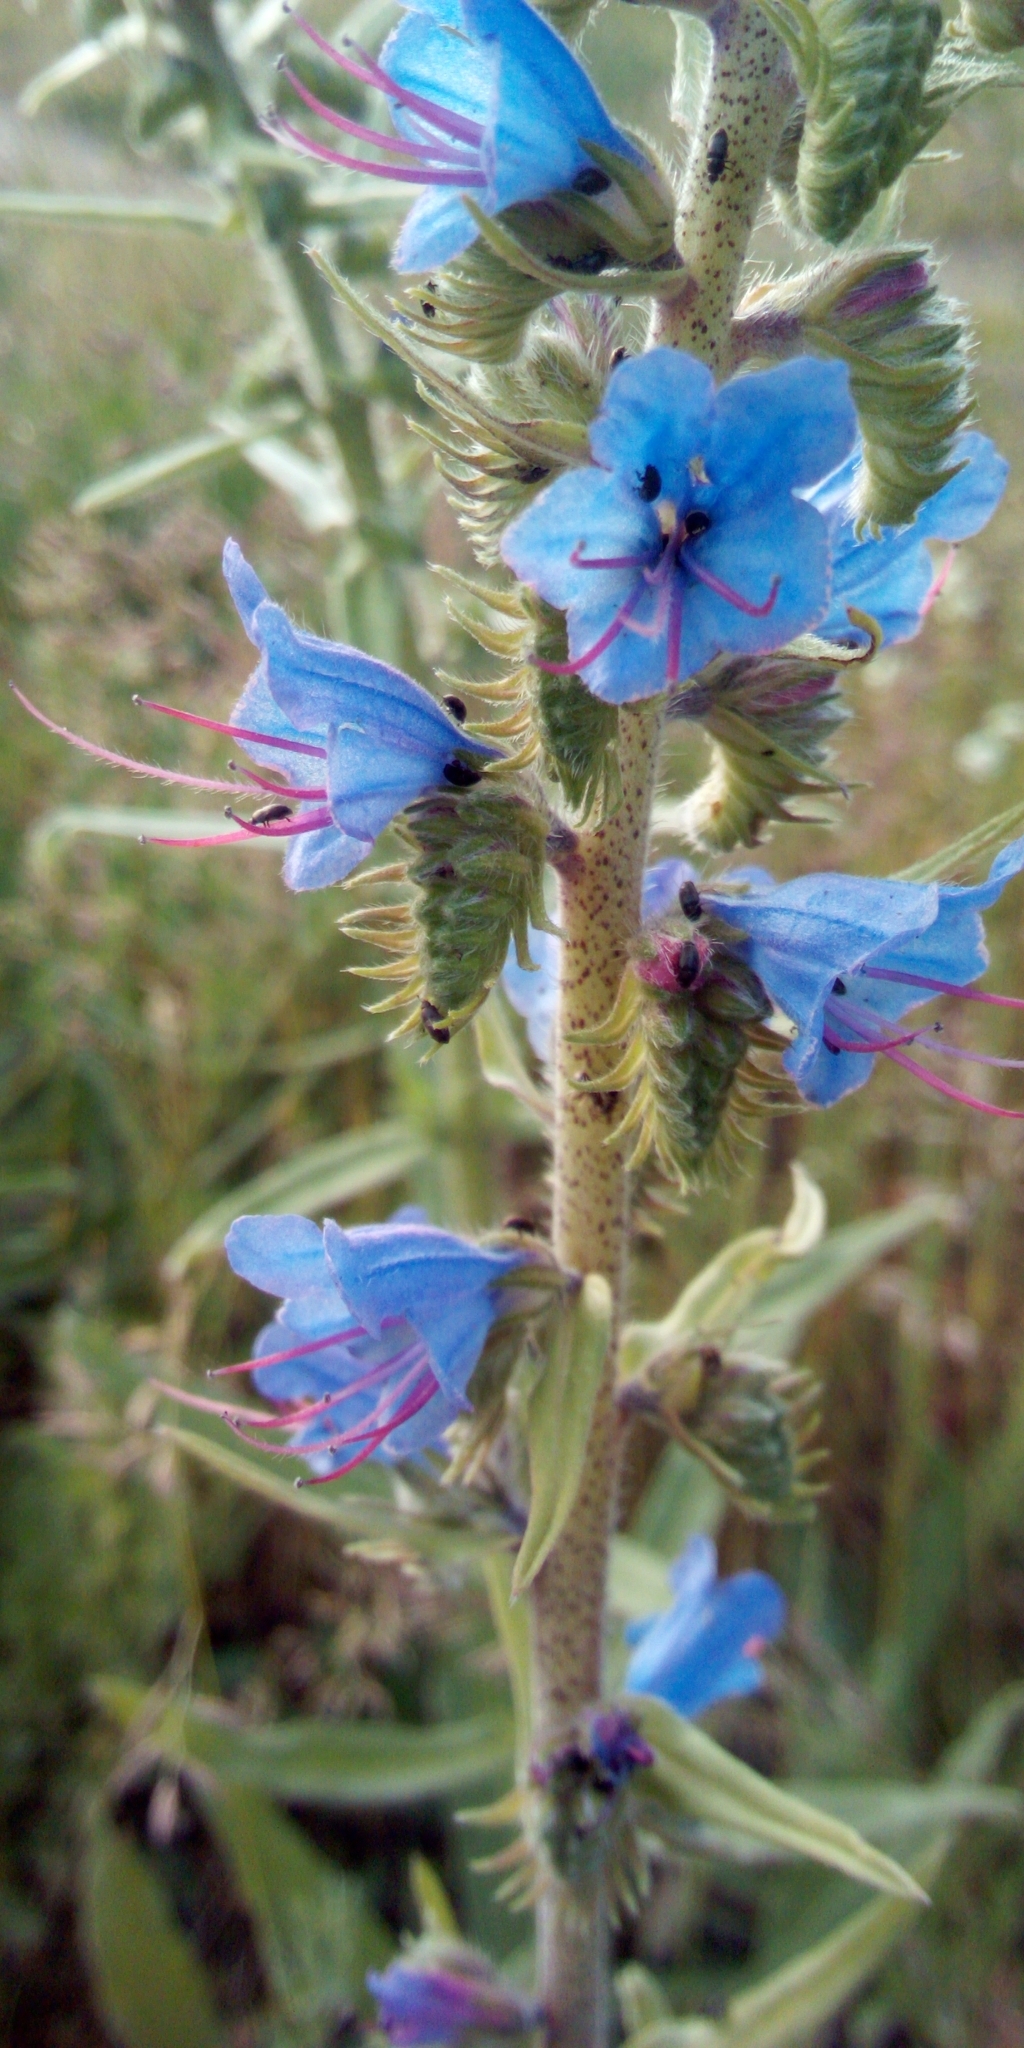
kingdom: Plantae
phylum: Tracheophyta
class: Magnoliopsida
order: Boraginales
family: Boraginaceae
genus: Echium
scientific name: Echium vulgare
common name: Common viper's bugloss
